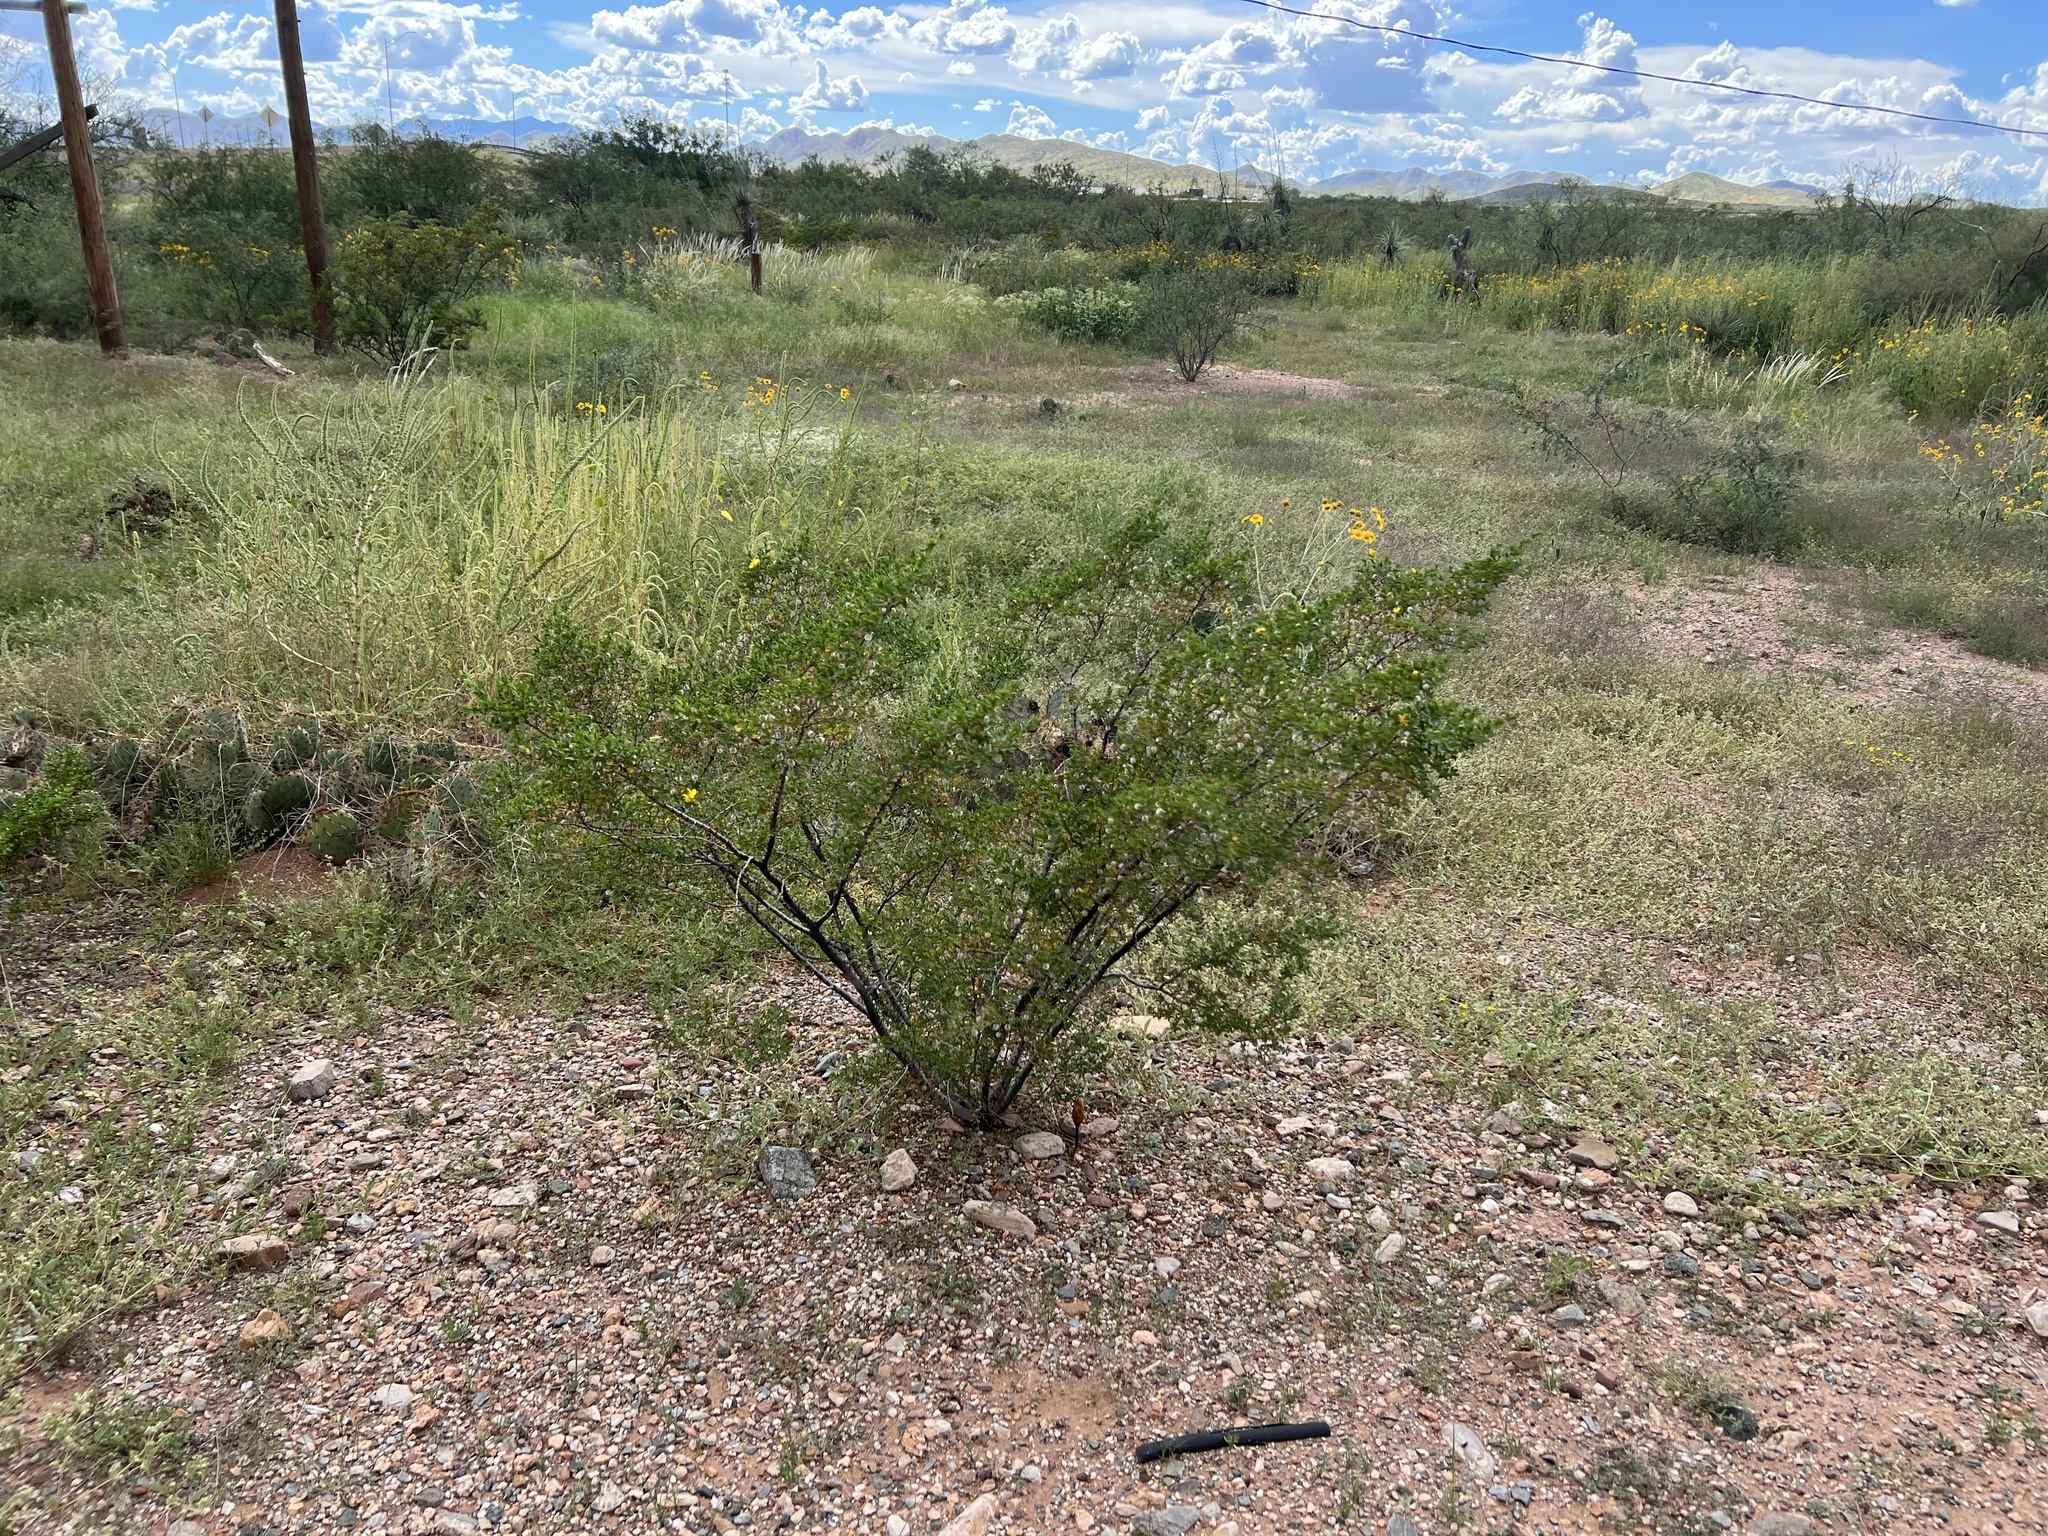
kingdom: Plantae
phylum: Tracheophyta
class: Magnoliopsida
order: Zygophyllales
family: Zygophyllaceae
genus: Larrea
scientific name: Larrea tridentata
